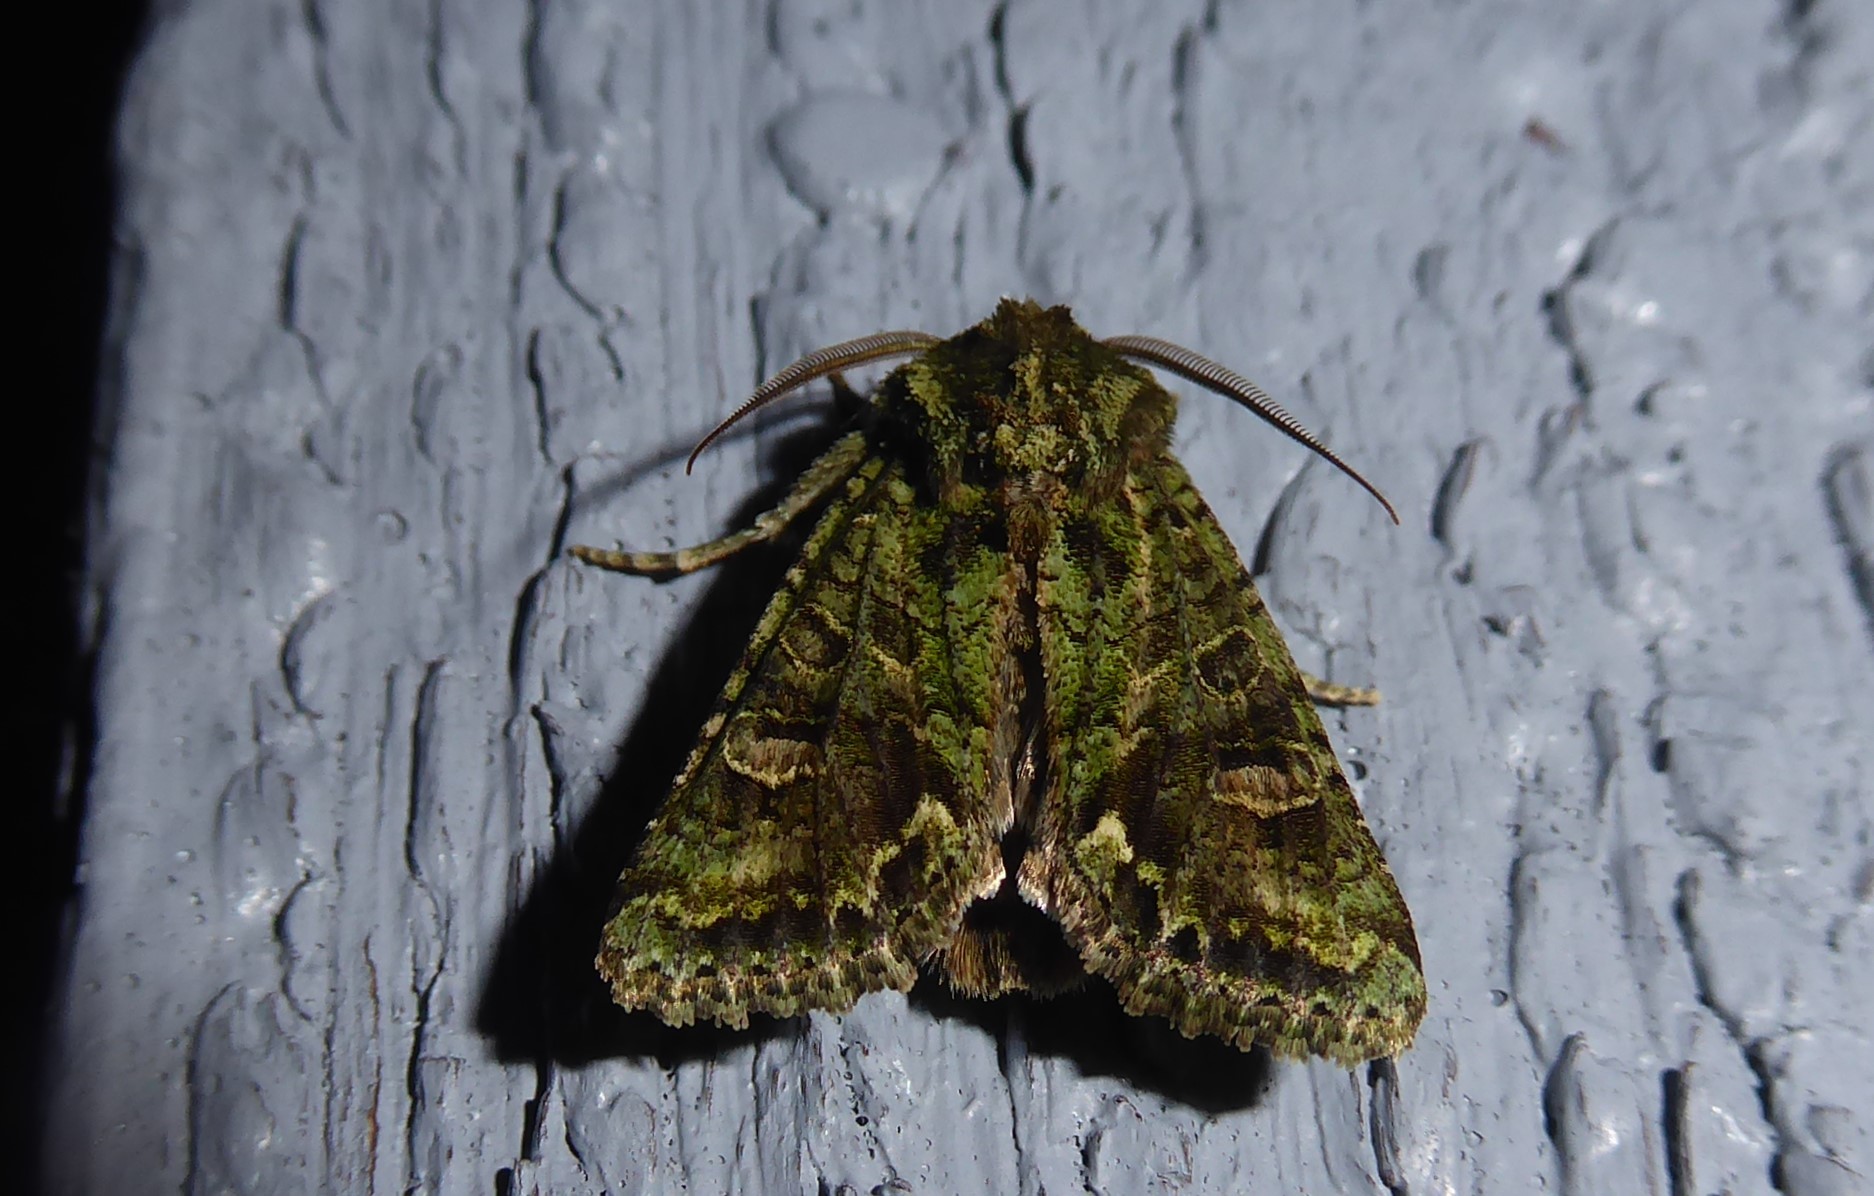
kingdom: Animalia
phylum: Arthropoda
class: Insecta
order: Lepidoptera
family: Noctuidae
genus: Ichneutica
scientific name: Ichneutica
